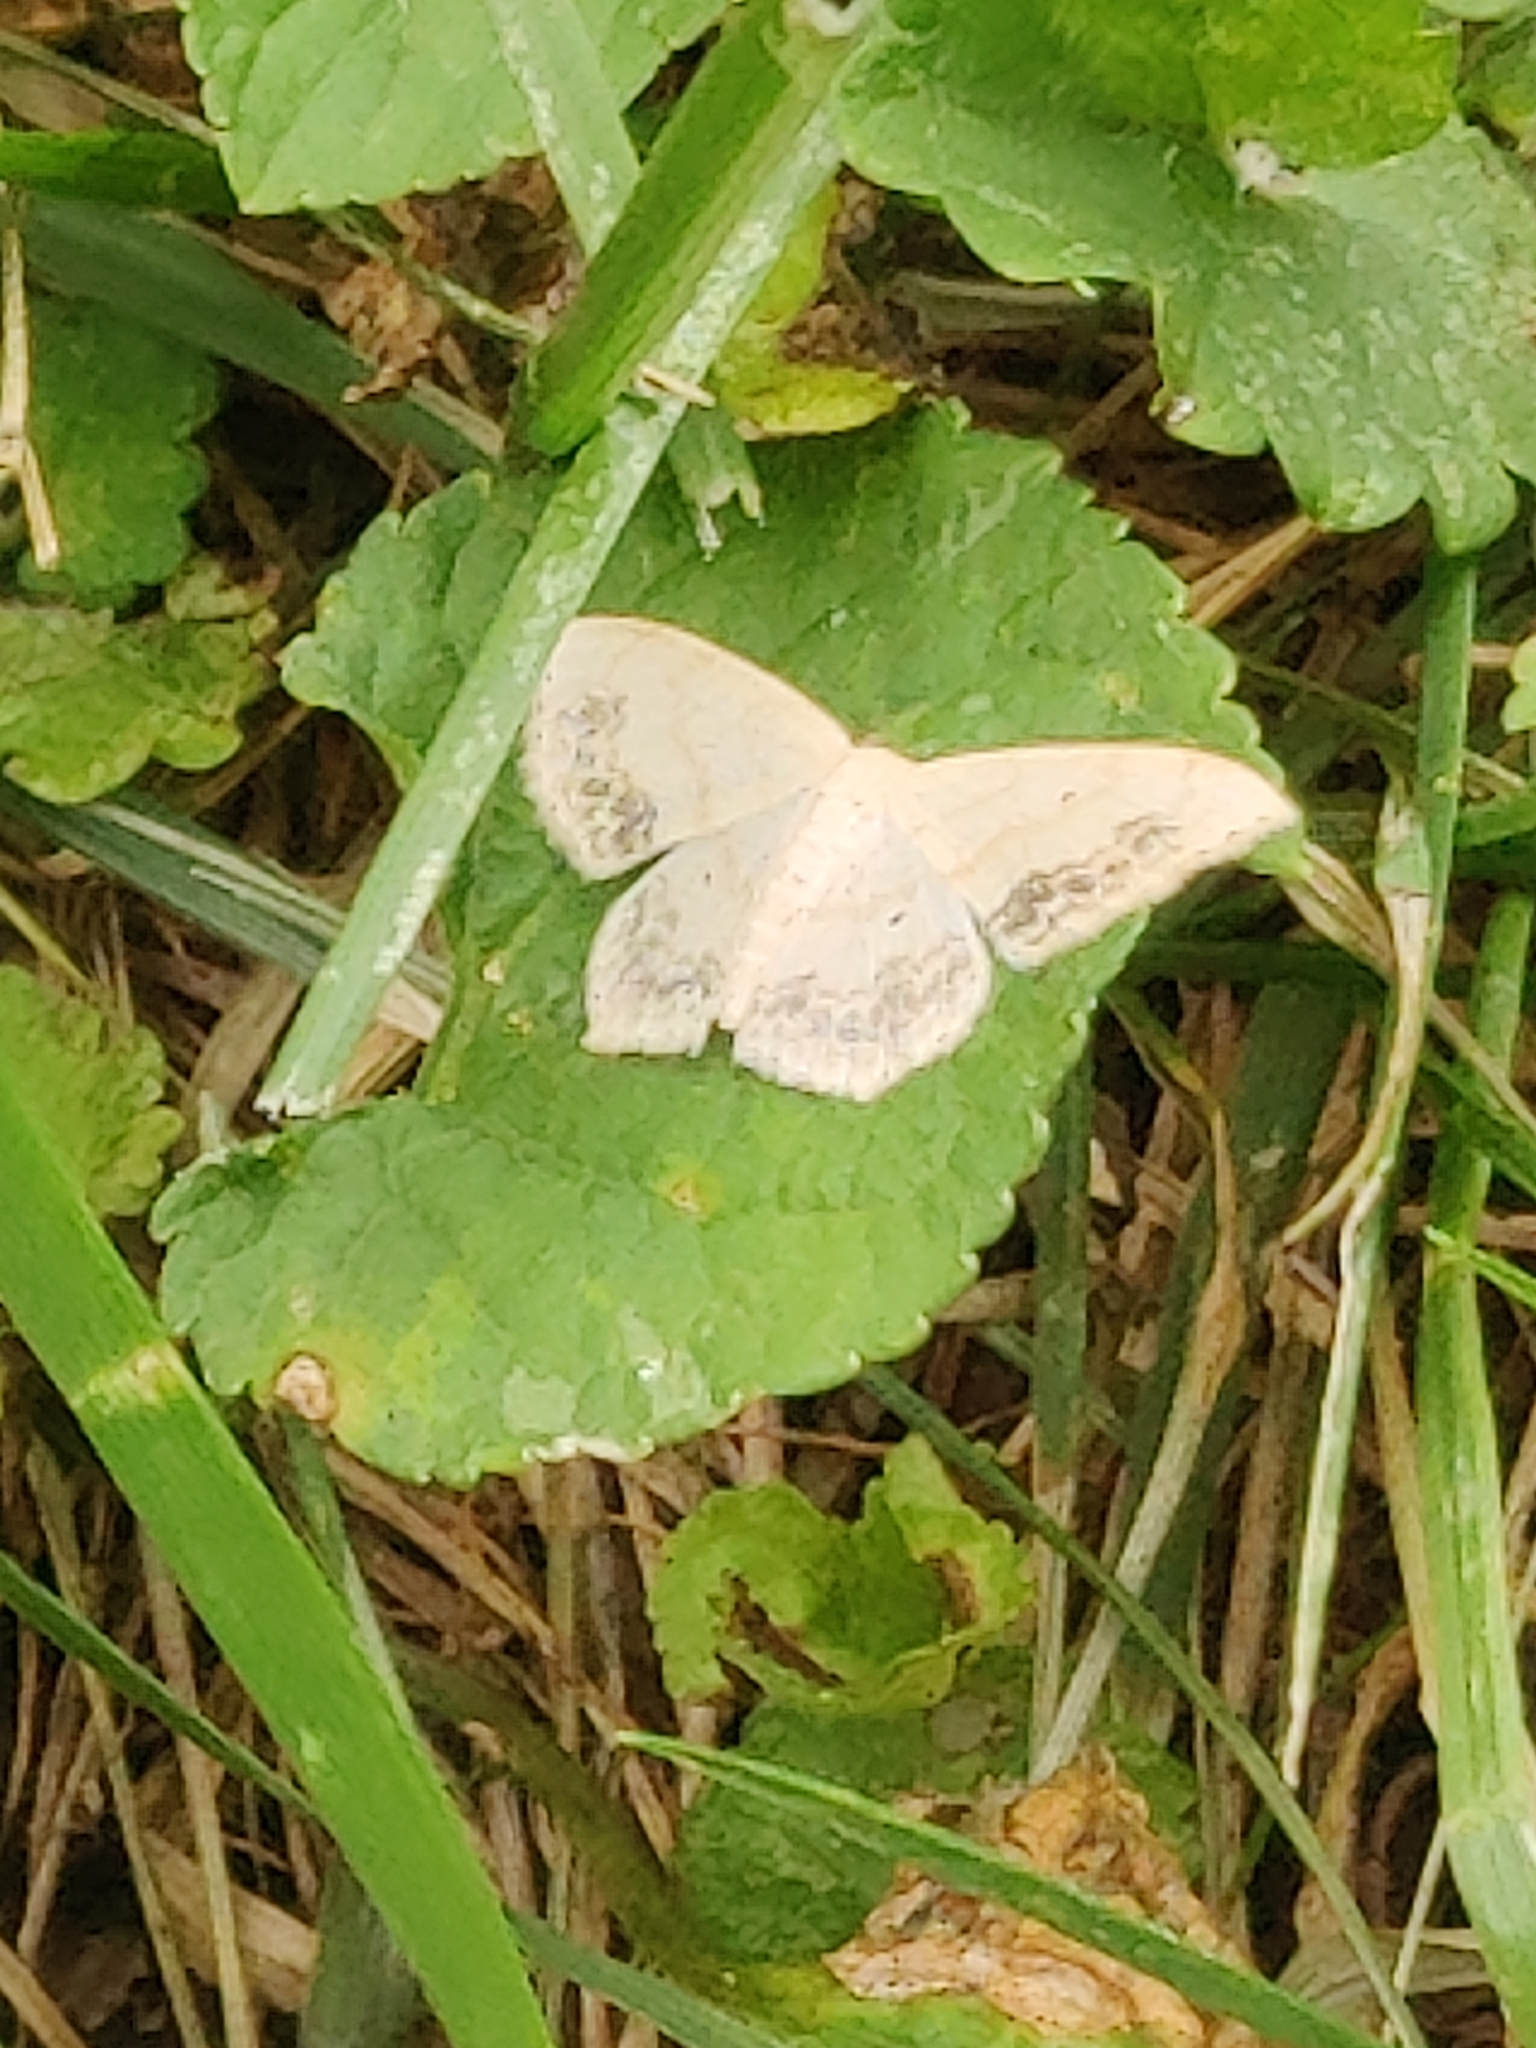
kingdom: Animalia
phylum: Arthropoda
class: Insecta
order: Lepidoptera
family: Geometridae
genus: Scopula
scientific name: Scopula limboundata
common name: Large lace border
